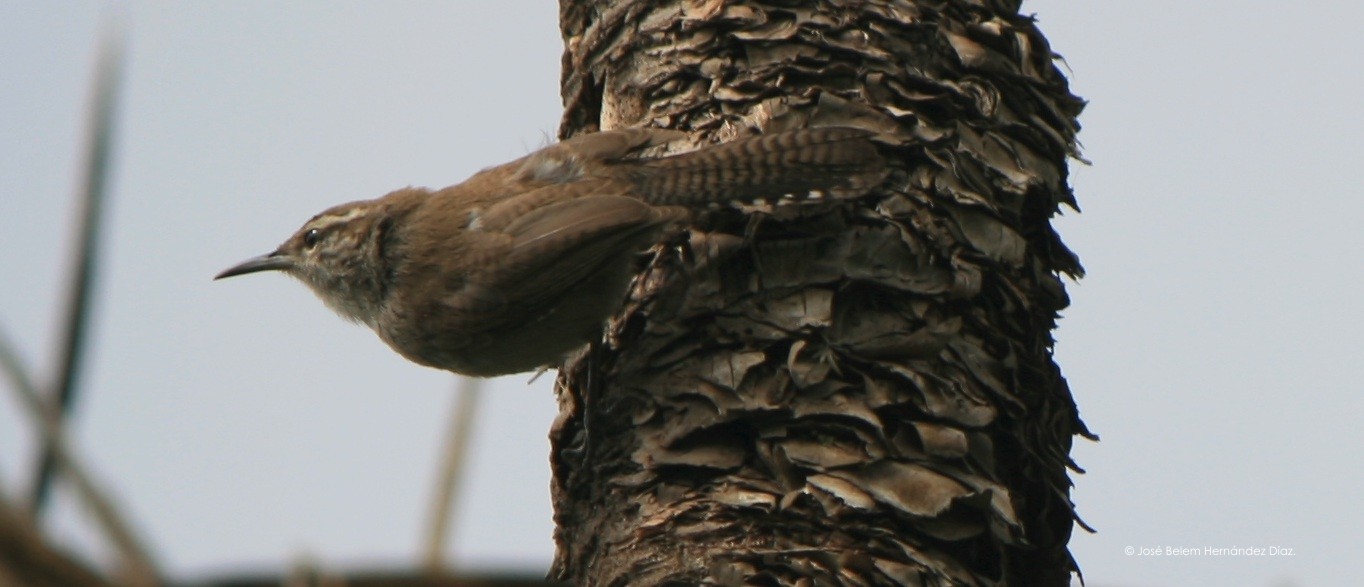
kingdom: Animalia
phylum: Chordata
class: Aves
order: Passeriformes
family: Troglodytidae
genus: Thryomanes
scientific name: Thryomanes bewickii
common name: Bewick's wren
